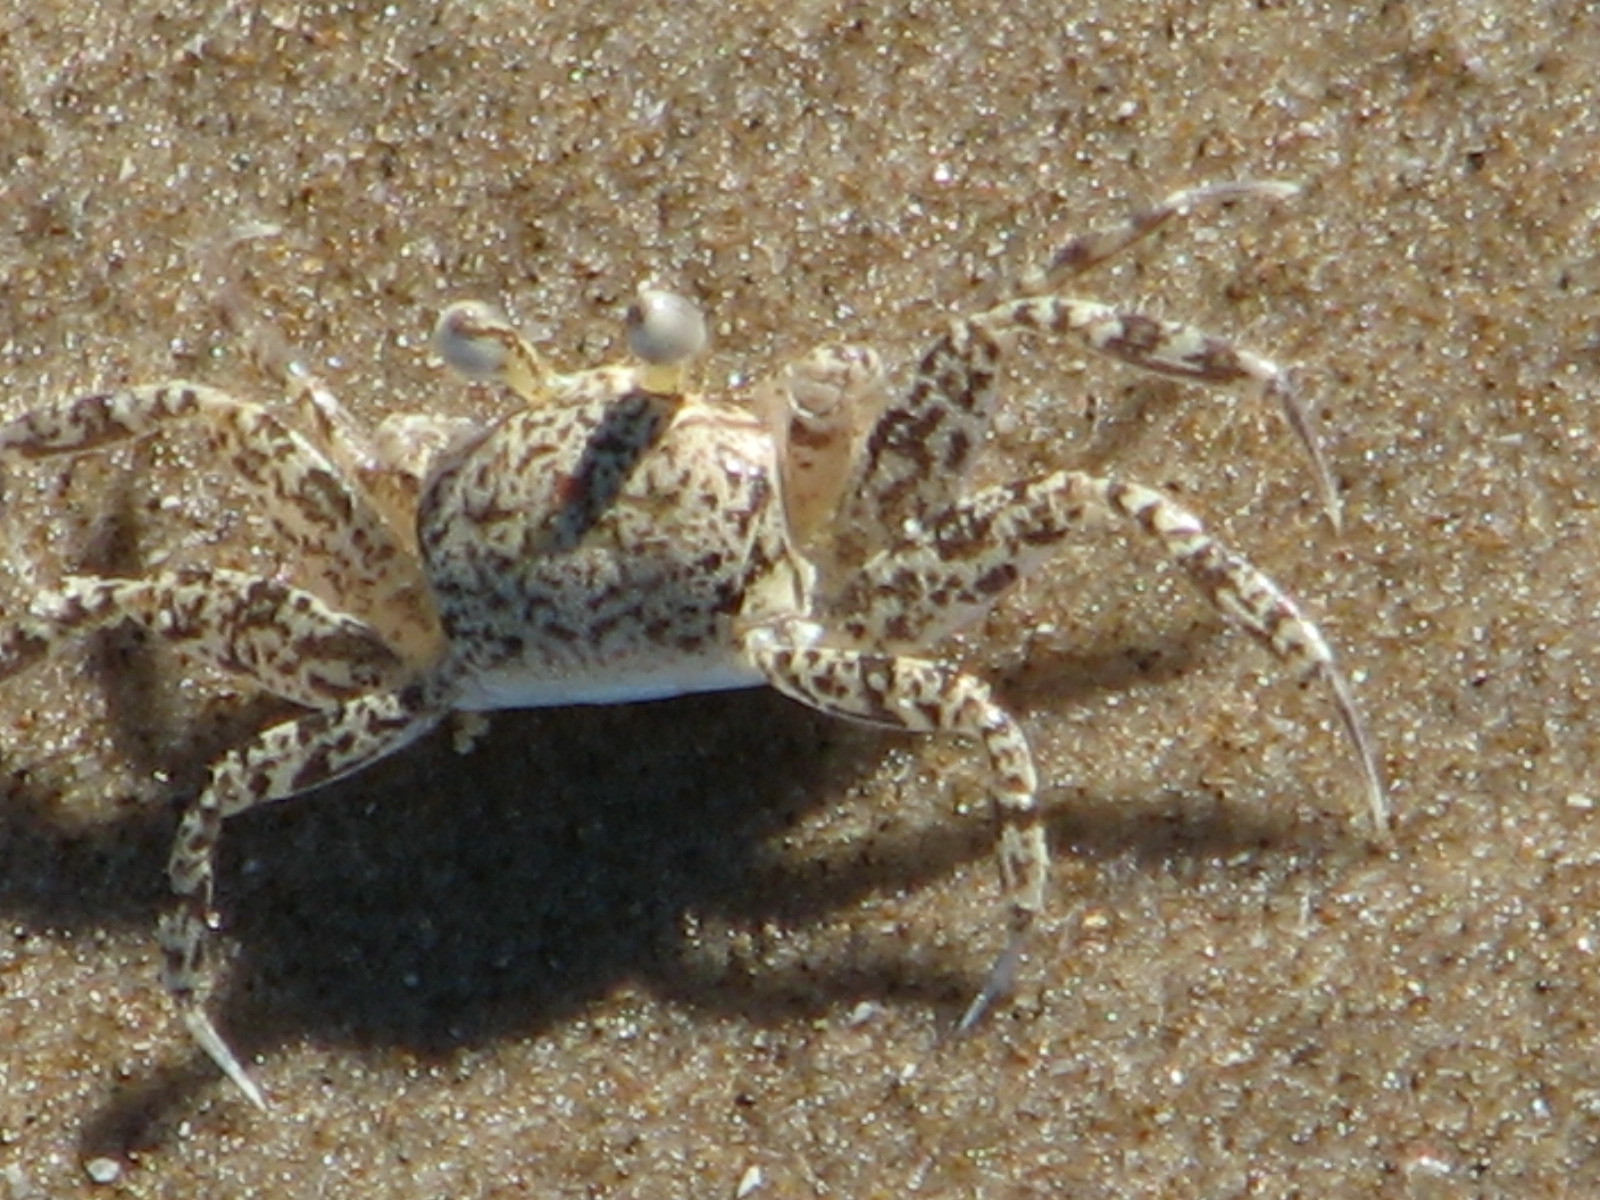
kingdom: Animalia
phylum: Arthropoda
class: Malacostraca
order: Decapoda
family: Ocypodidae
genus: Ocypode
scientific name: Ocypode quadrata
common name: Ghost crab
